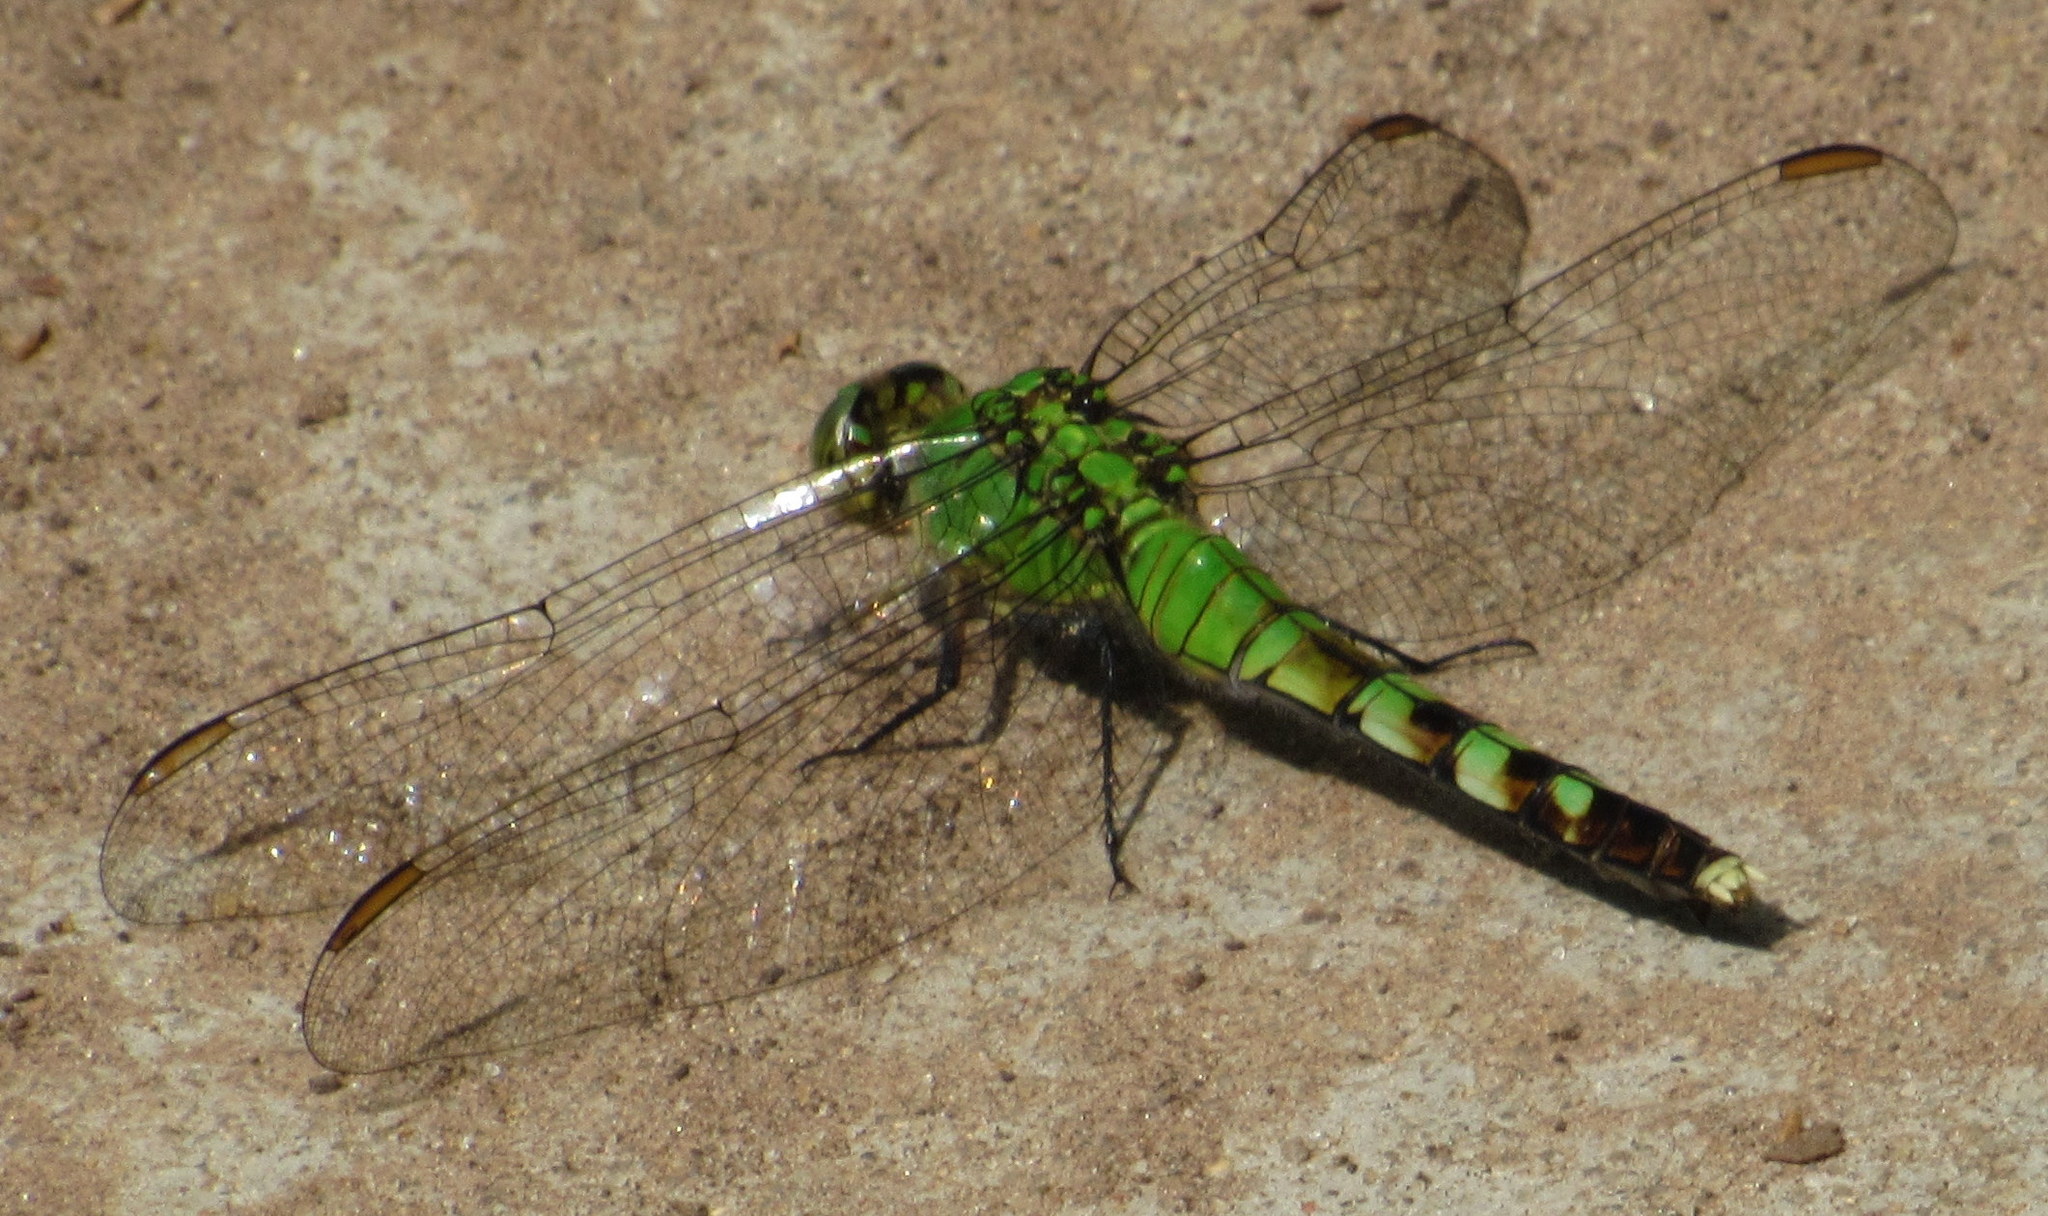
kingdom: Animalia
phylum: Arthropoda
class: Insecta
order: Odonata
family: Libellulidae
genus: Erythemis
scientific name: Erythemis simplicicollis
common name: Eastern pondhawk
